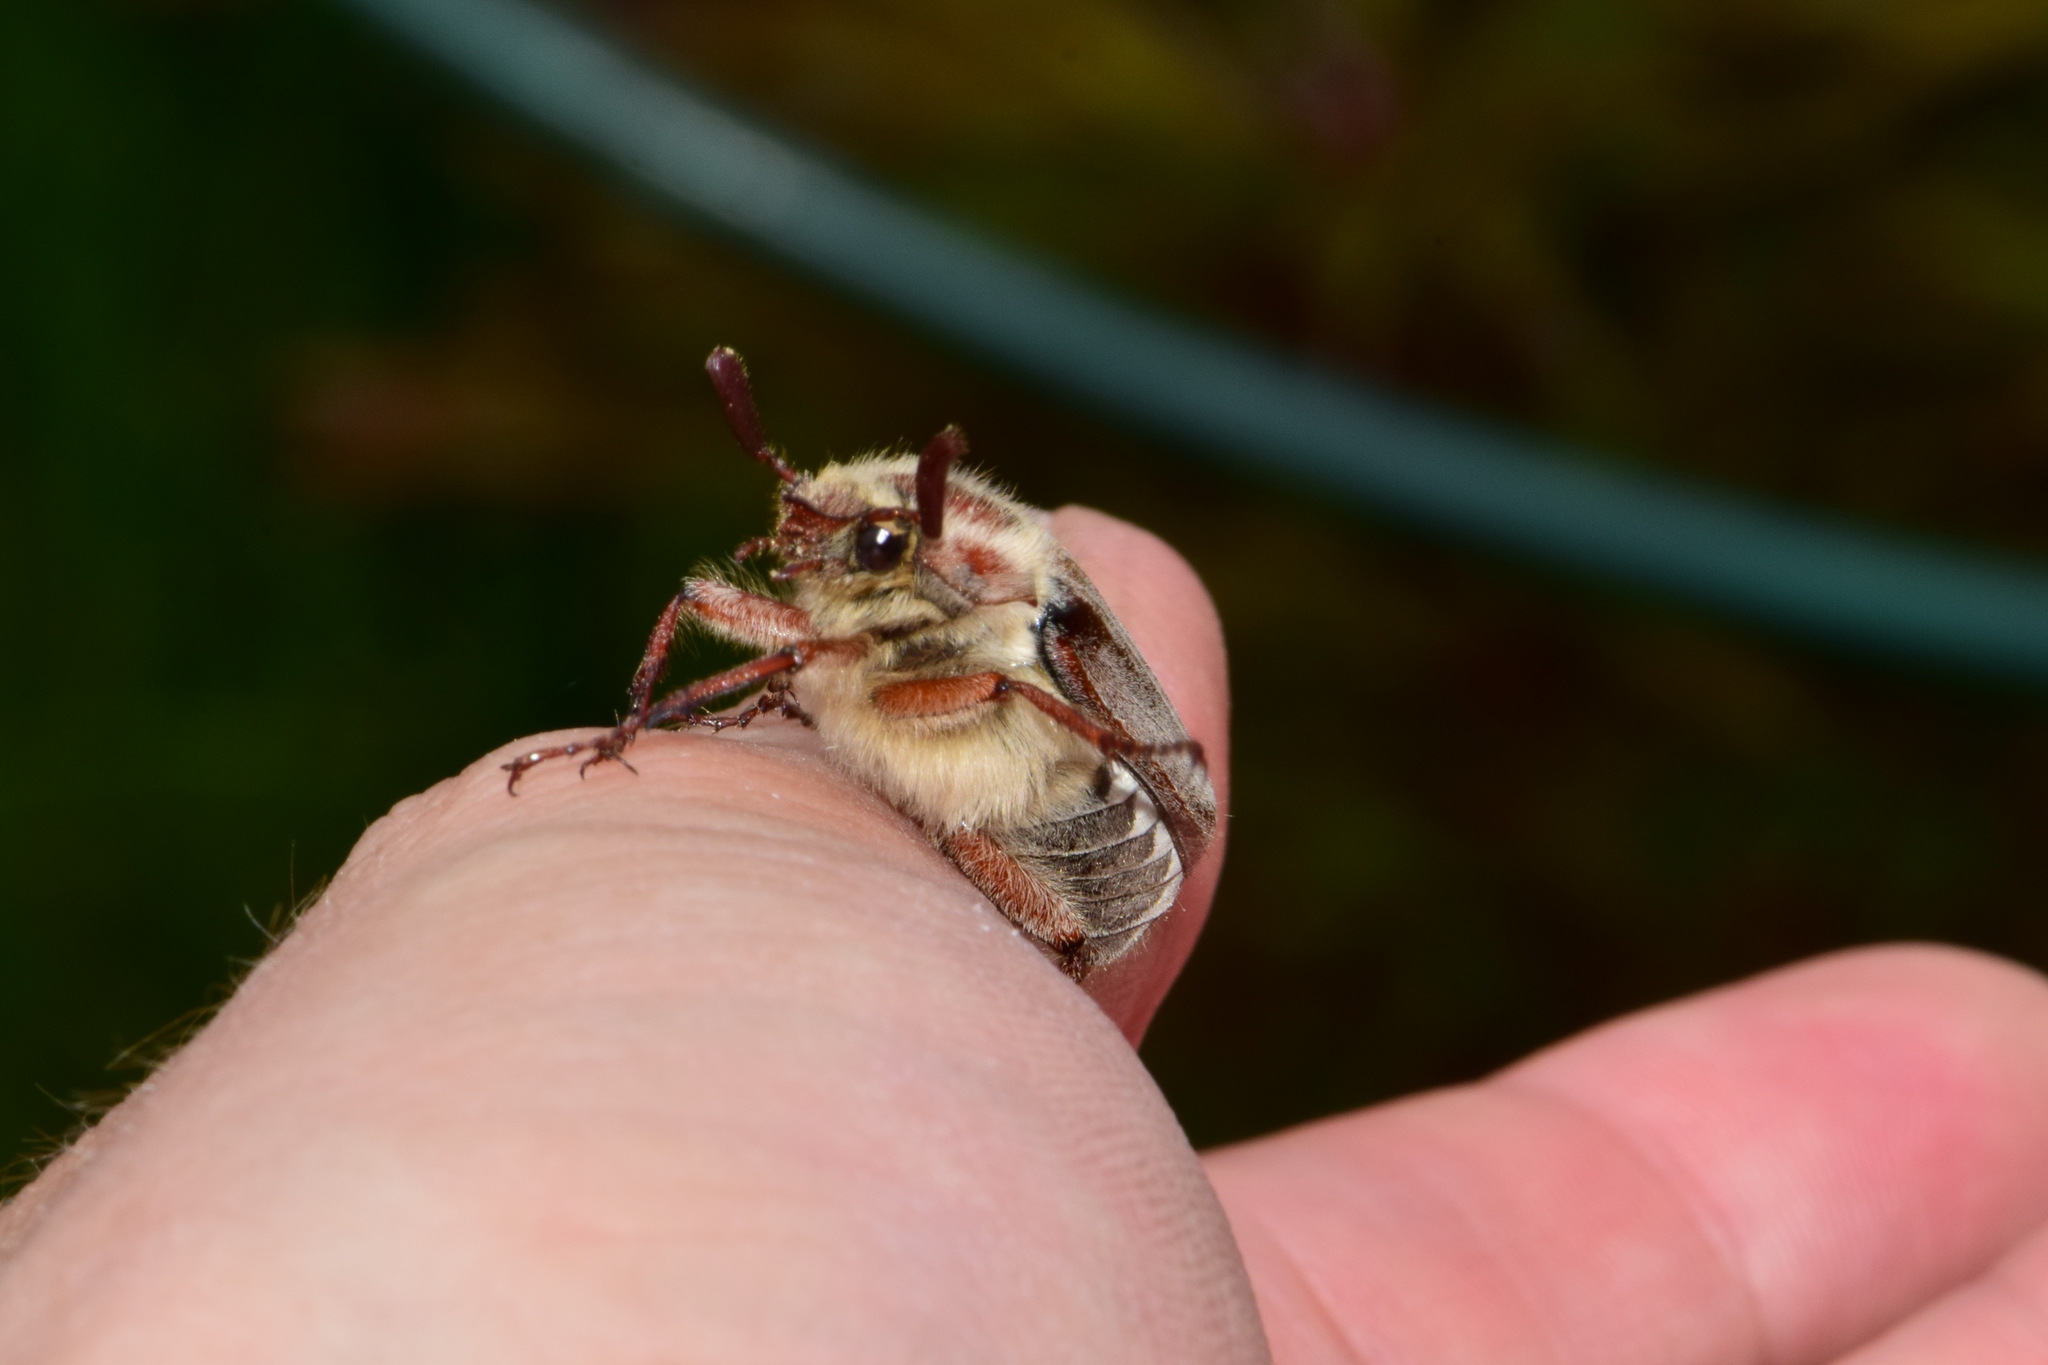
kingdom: Animalia
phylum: Arthropoda
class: Insecta
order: Coleoptera
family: Scarabaeidae
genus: Melolontha
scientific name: Melolontha hippocastani
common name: Chestnut cockchafer
